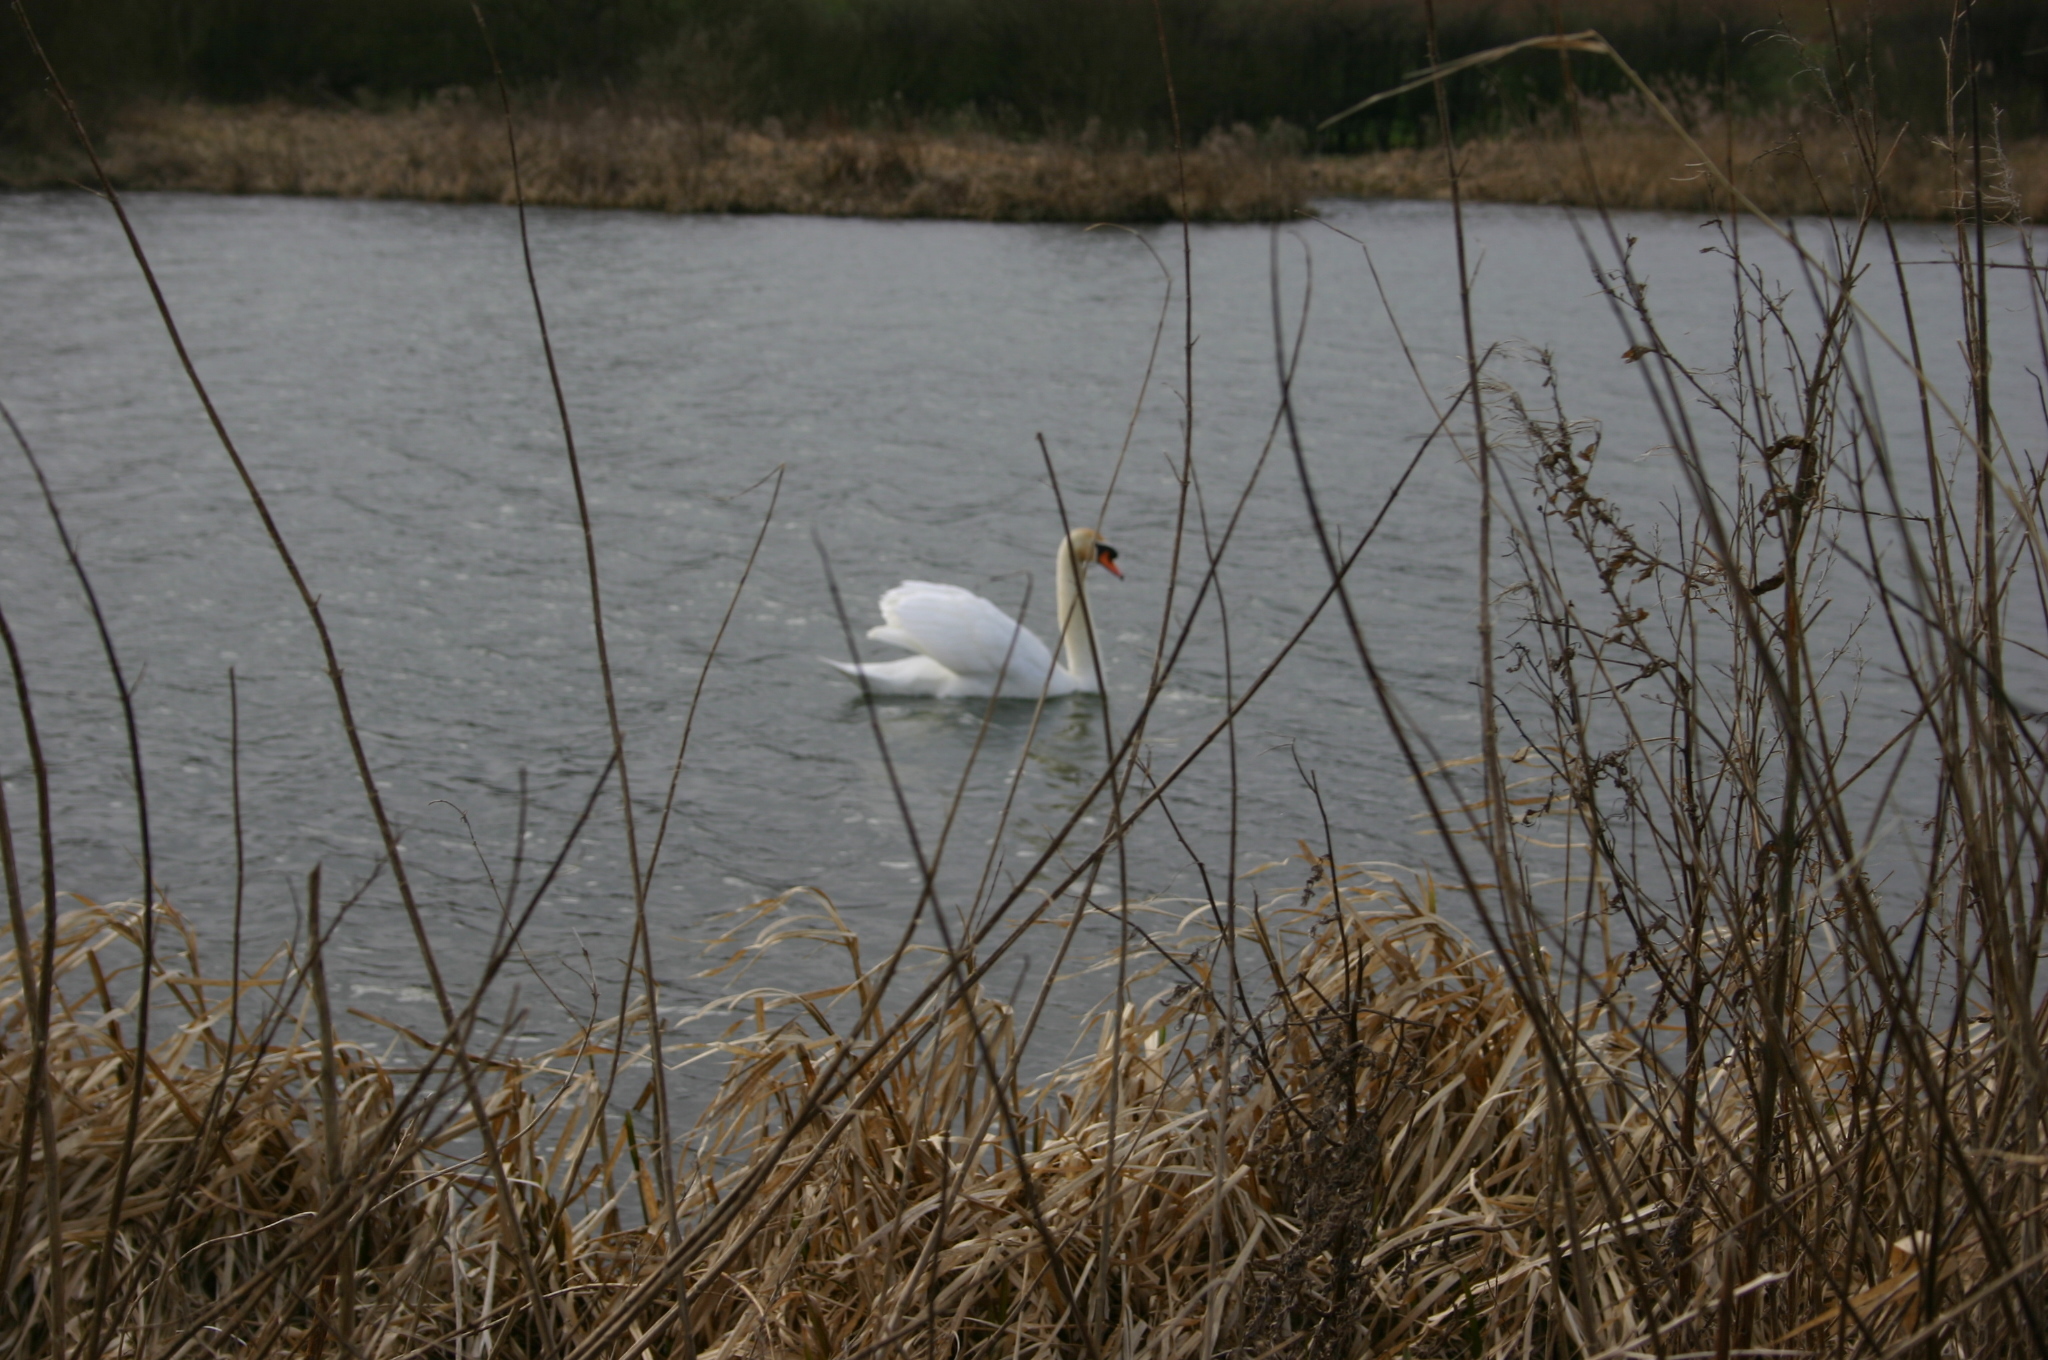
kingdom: Animalia
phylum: Chordata
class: Aves
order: Anseriformes
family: Anatidae
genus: Cygnus
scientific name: Cygnus olor
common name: Mute swan
